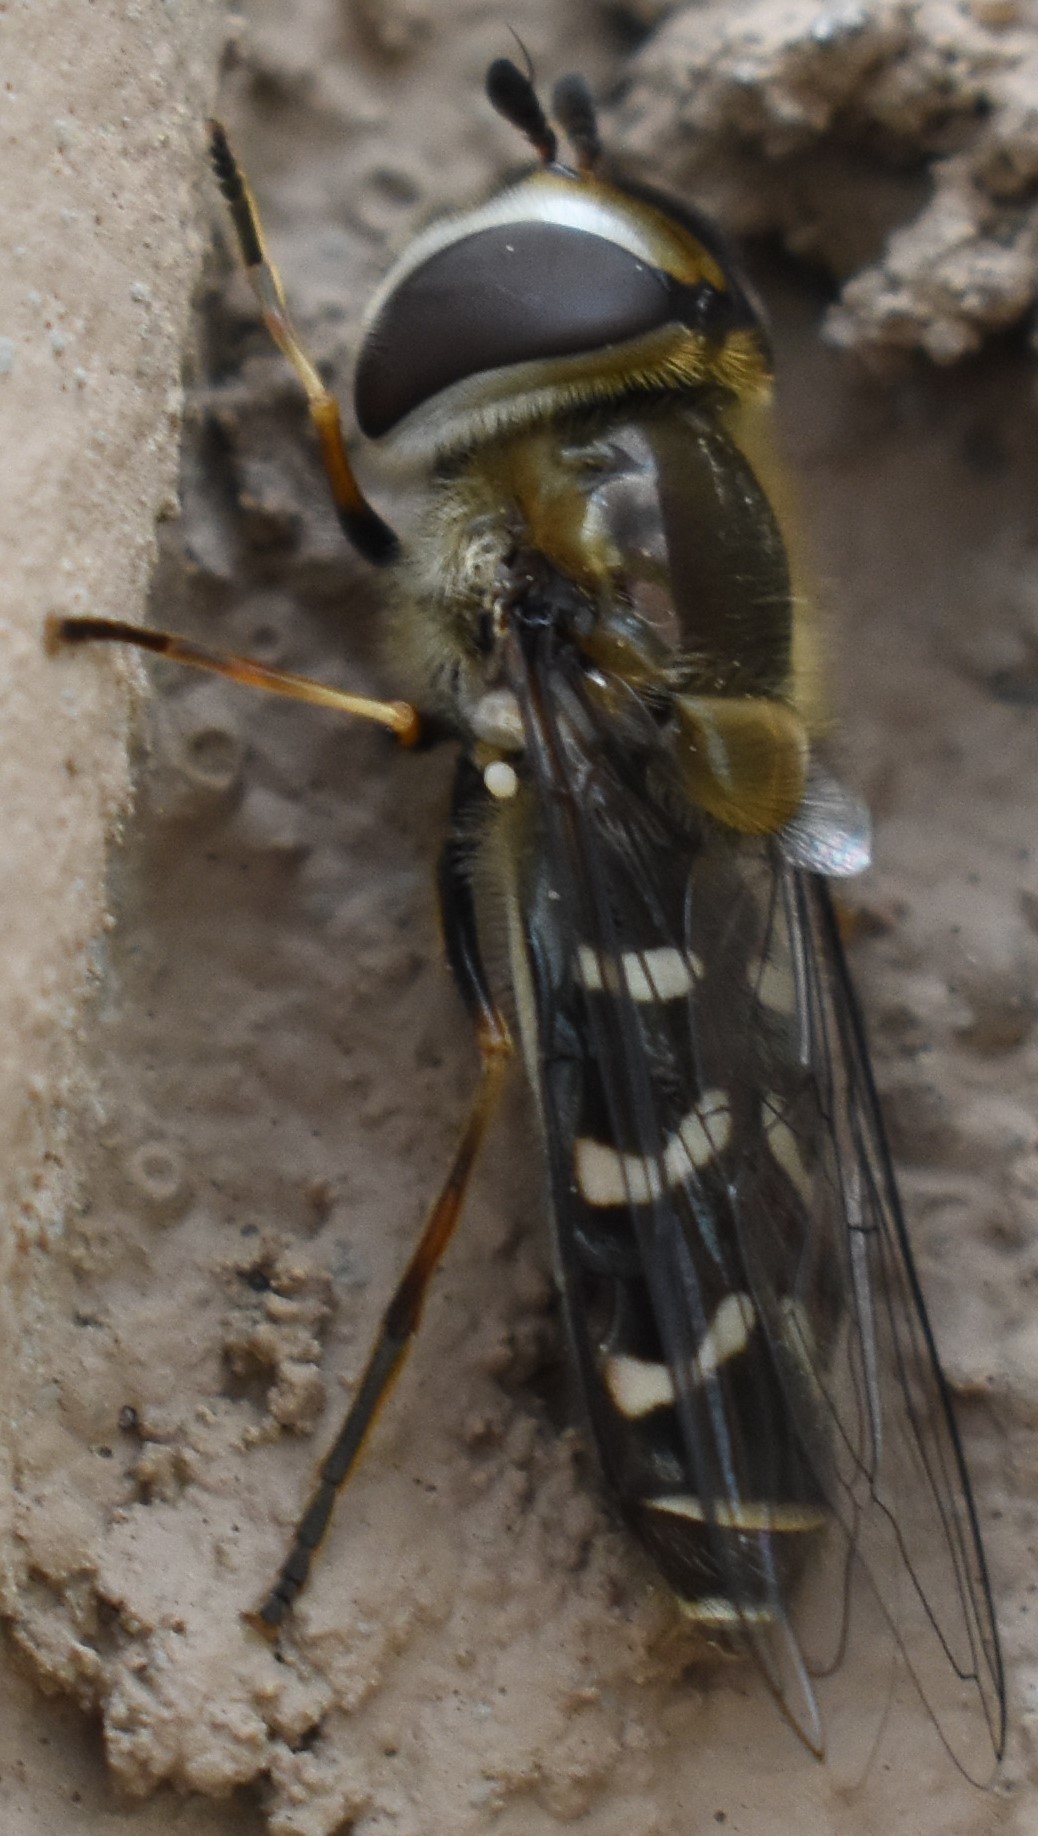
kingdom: Animalia
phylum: Arthropoda
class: Insecta
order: Diptera
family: Syrphidae
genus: Scaeva
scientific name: Scaeva affinis
